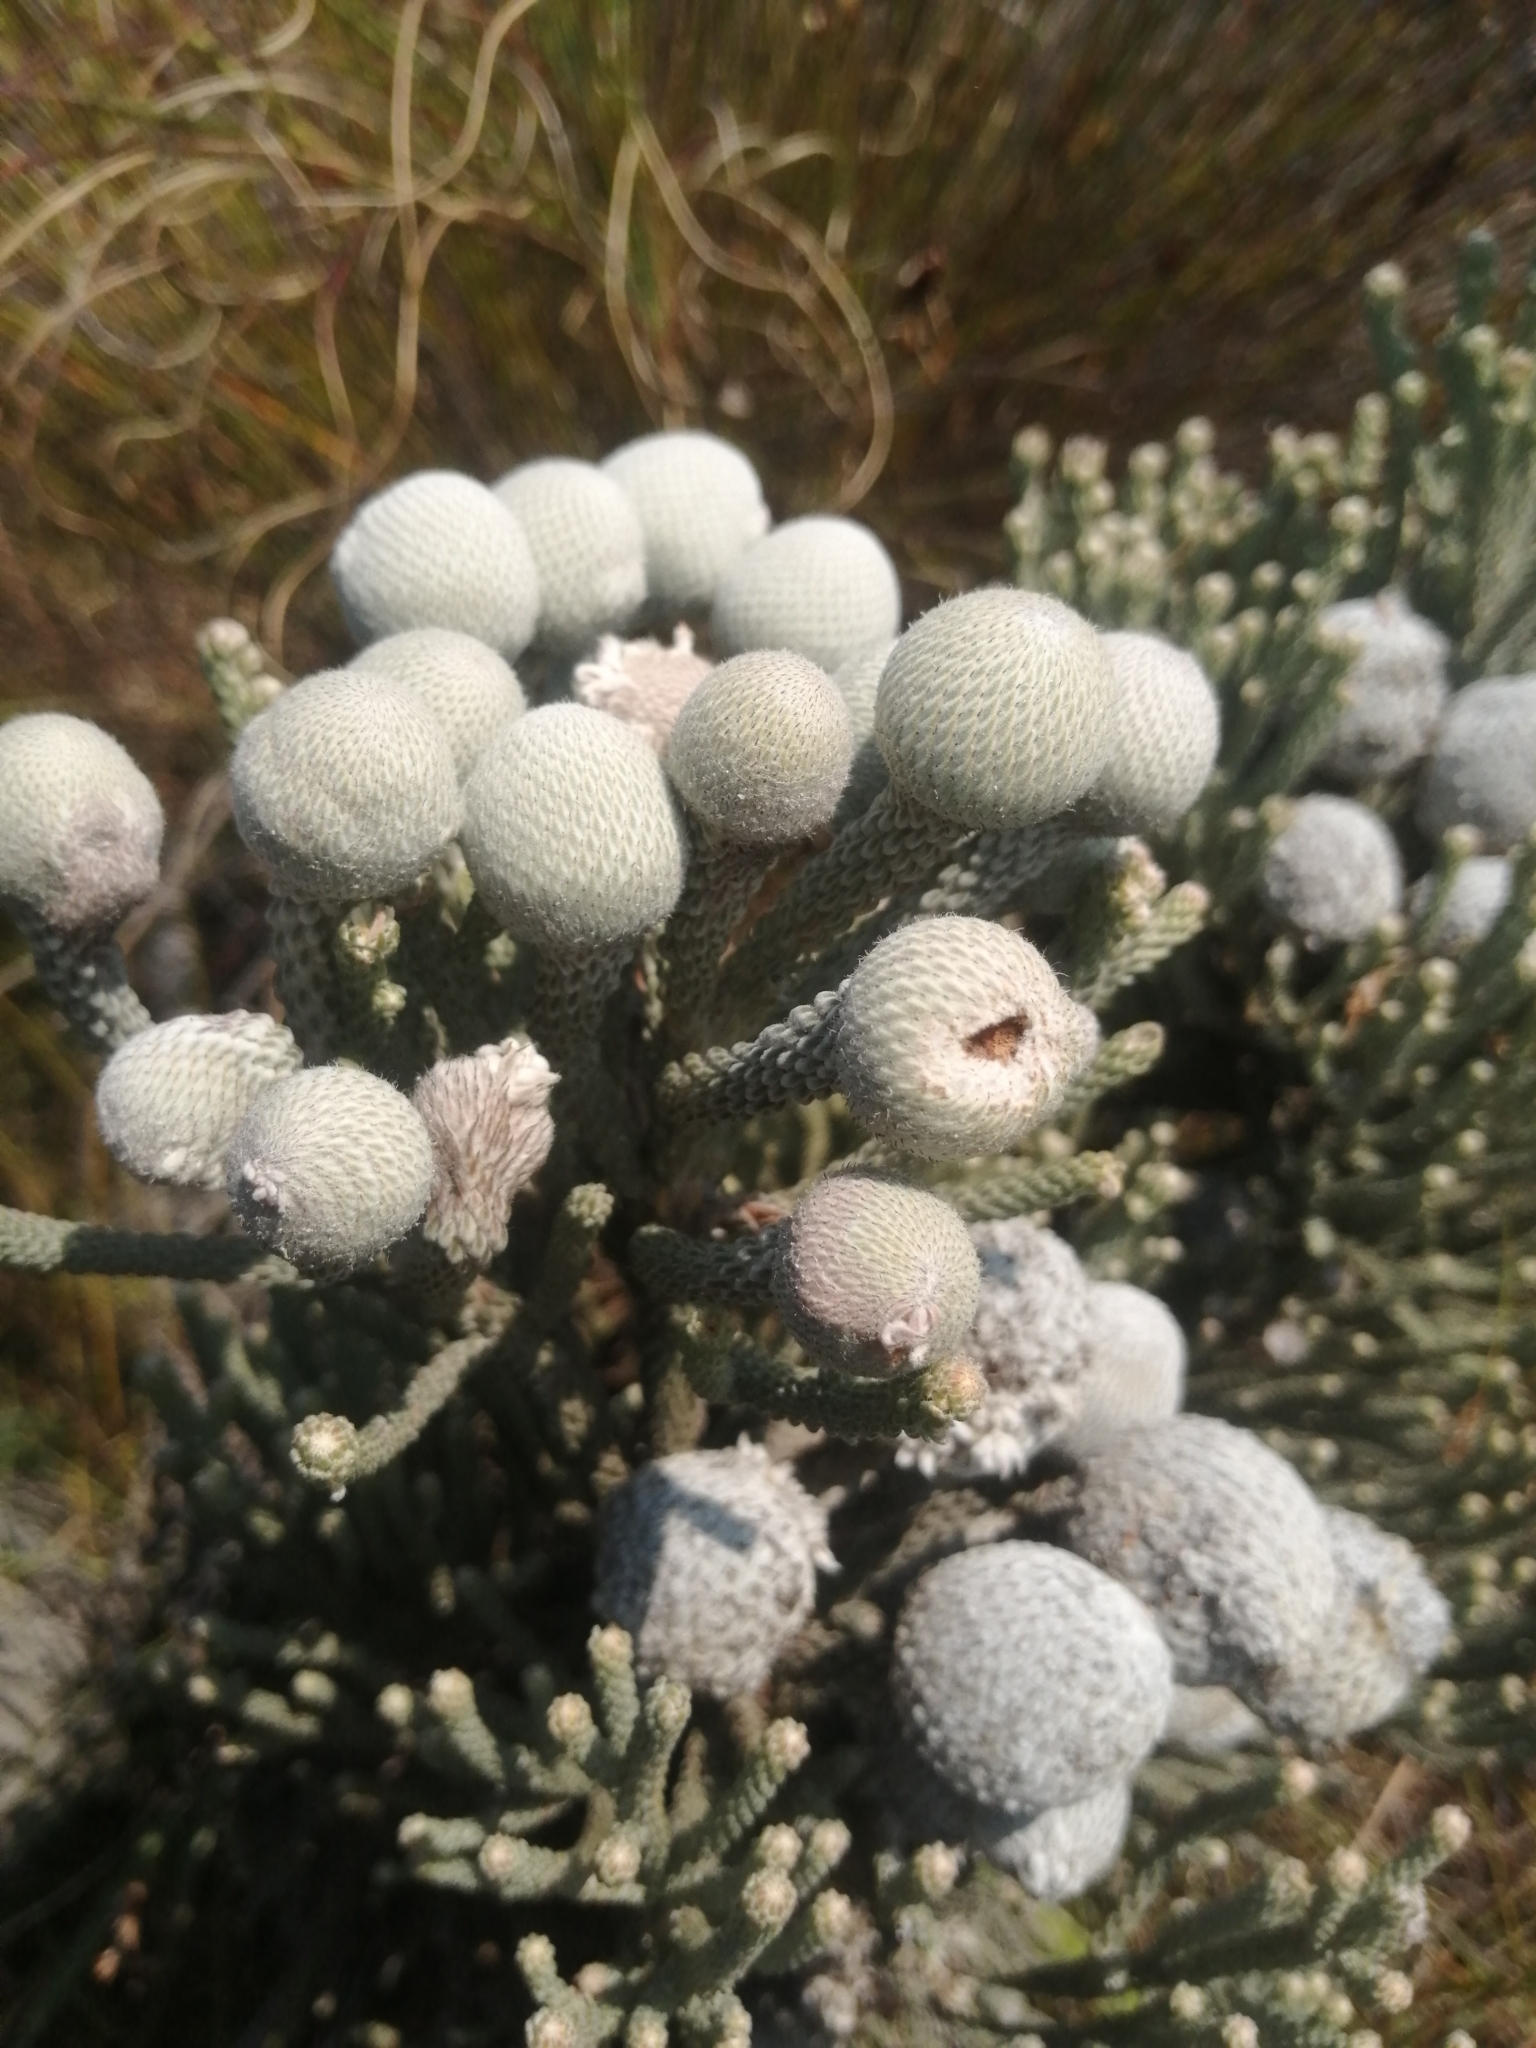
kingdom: Plantae
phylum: Tracheophyta
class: Magnoliopsida
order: Bruniales
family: Bruniaceae
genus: Brunia
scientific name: Brunia laevis
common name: Silver brunia
